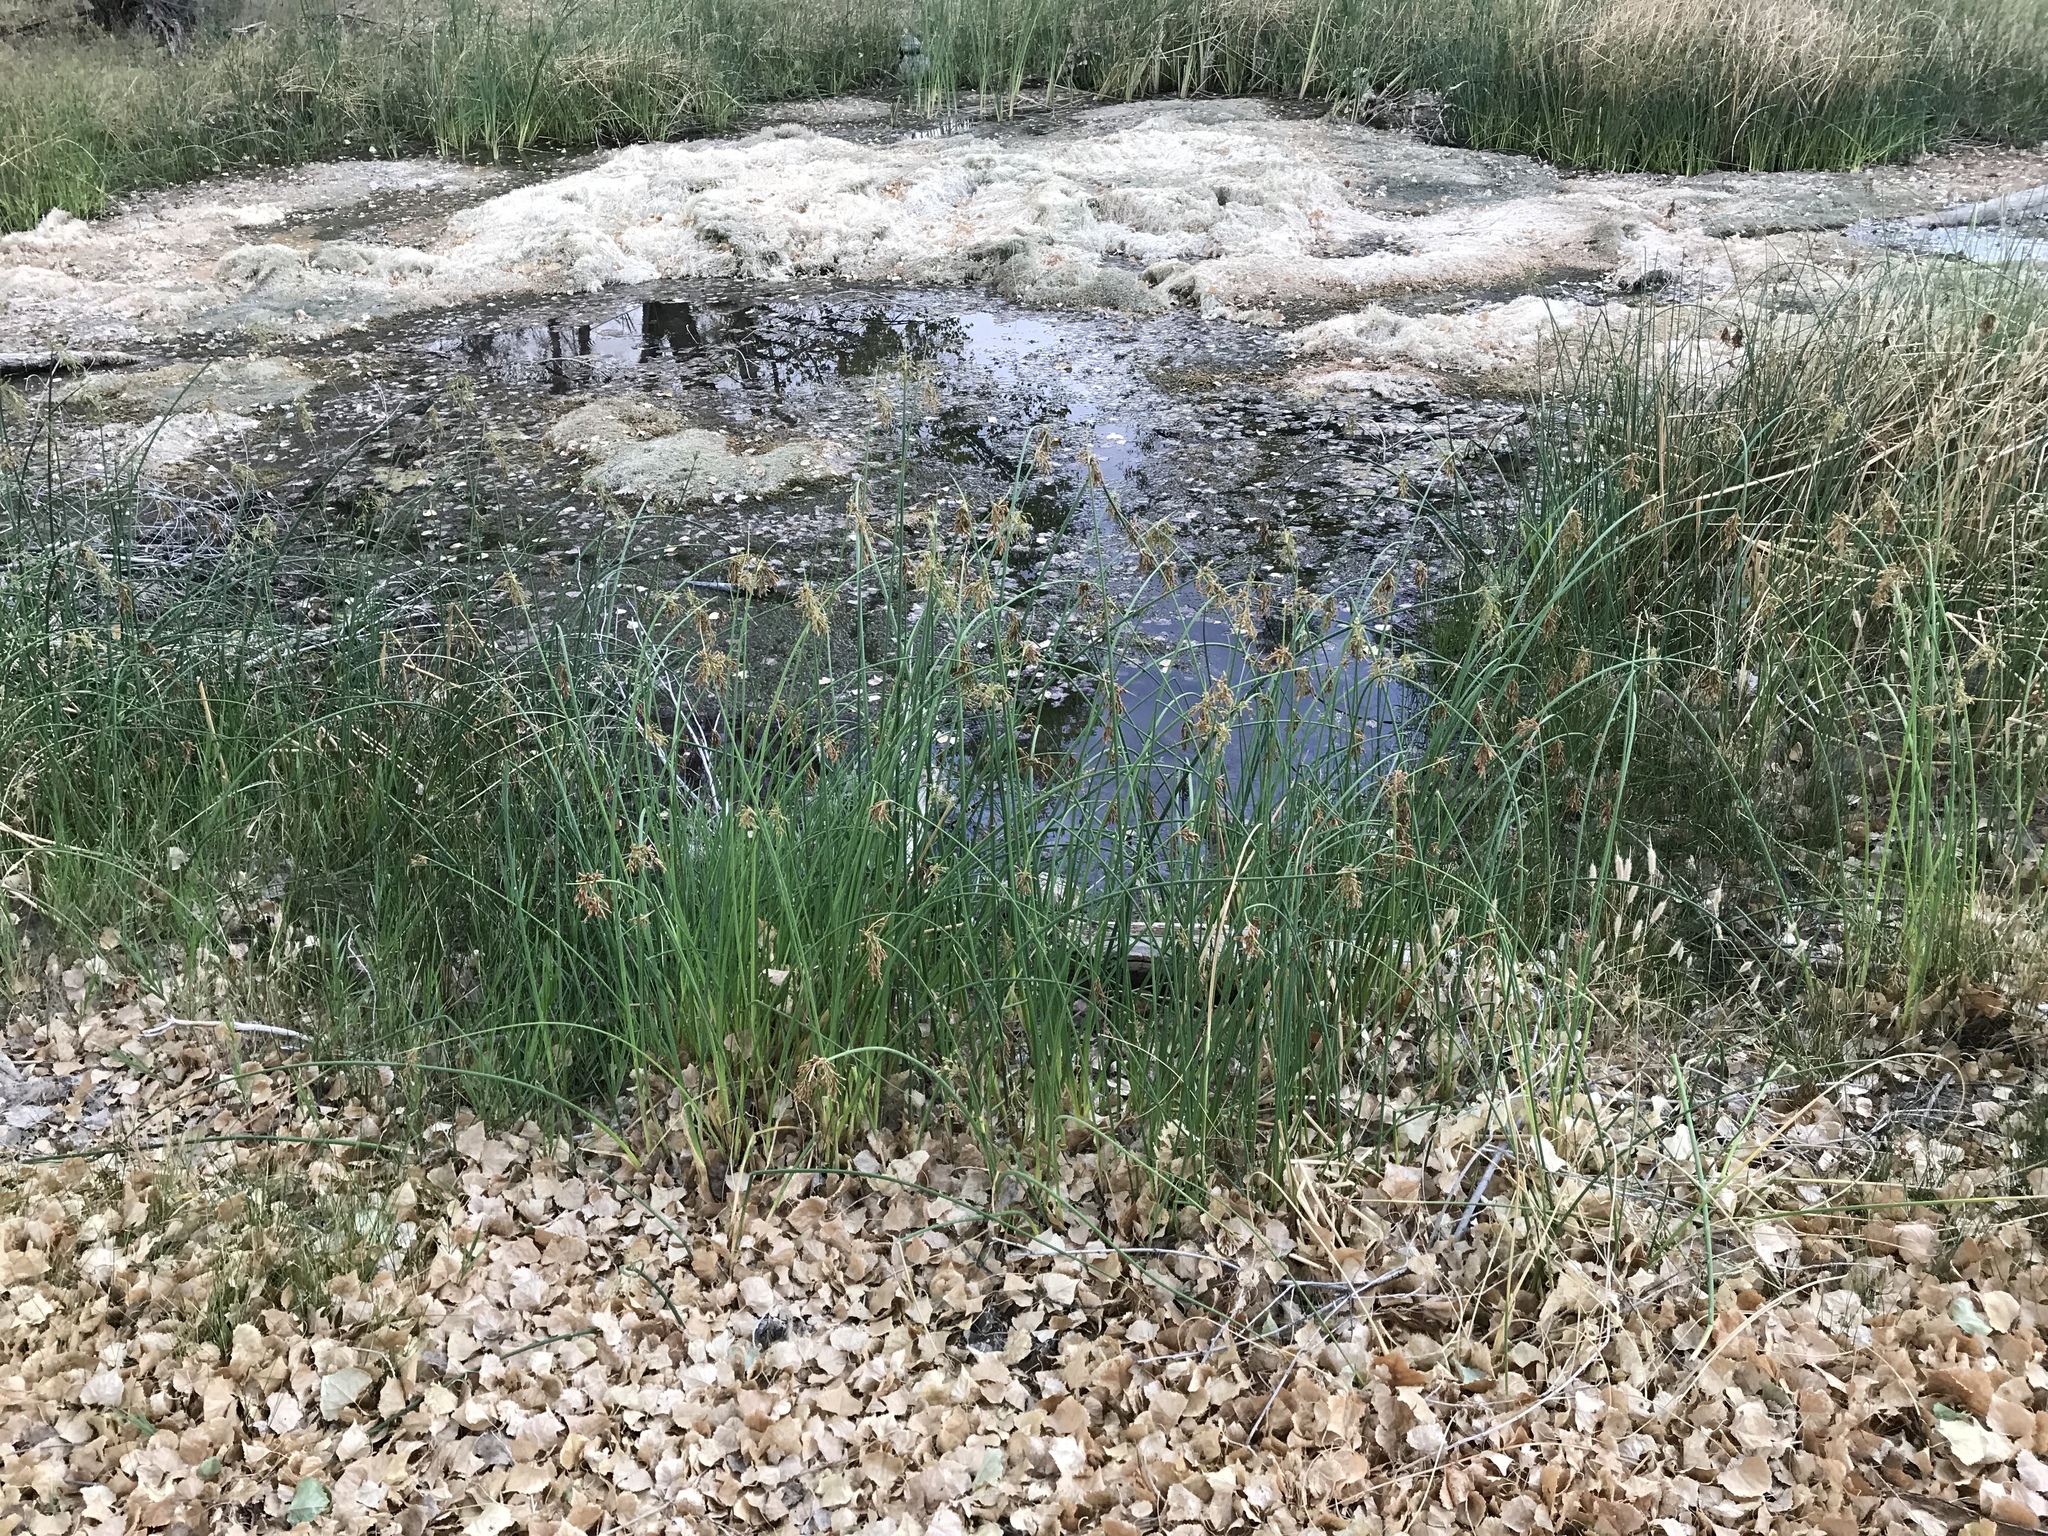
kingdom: Plantae
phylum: Tracheophyta
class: Liliopsida
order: Poales
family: Cyperaceae
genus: Schoenoplectus
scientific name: Schoenoplectus acutus
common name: Hardstem bulrush
